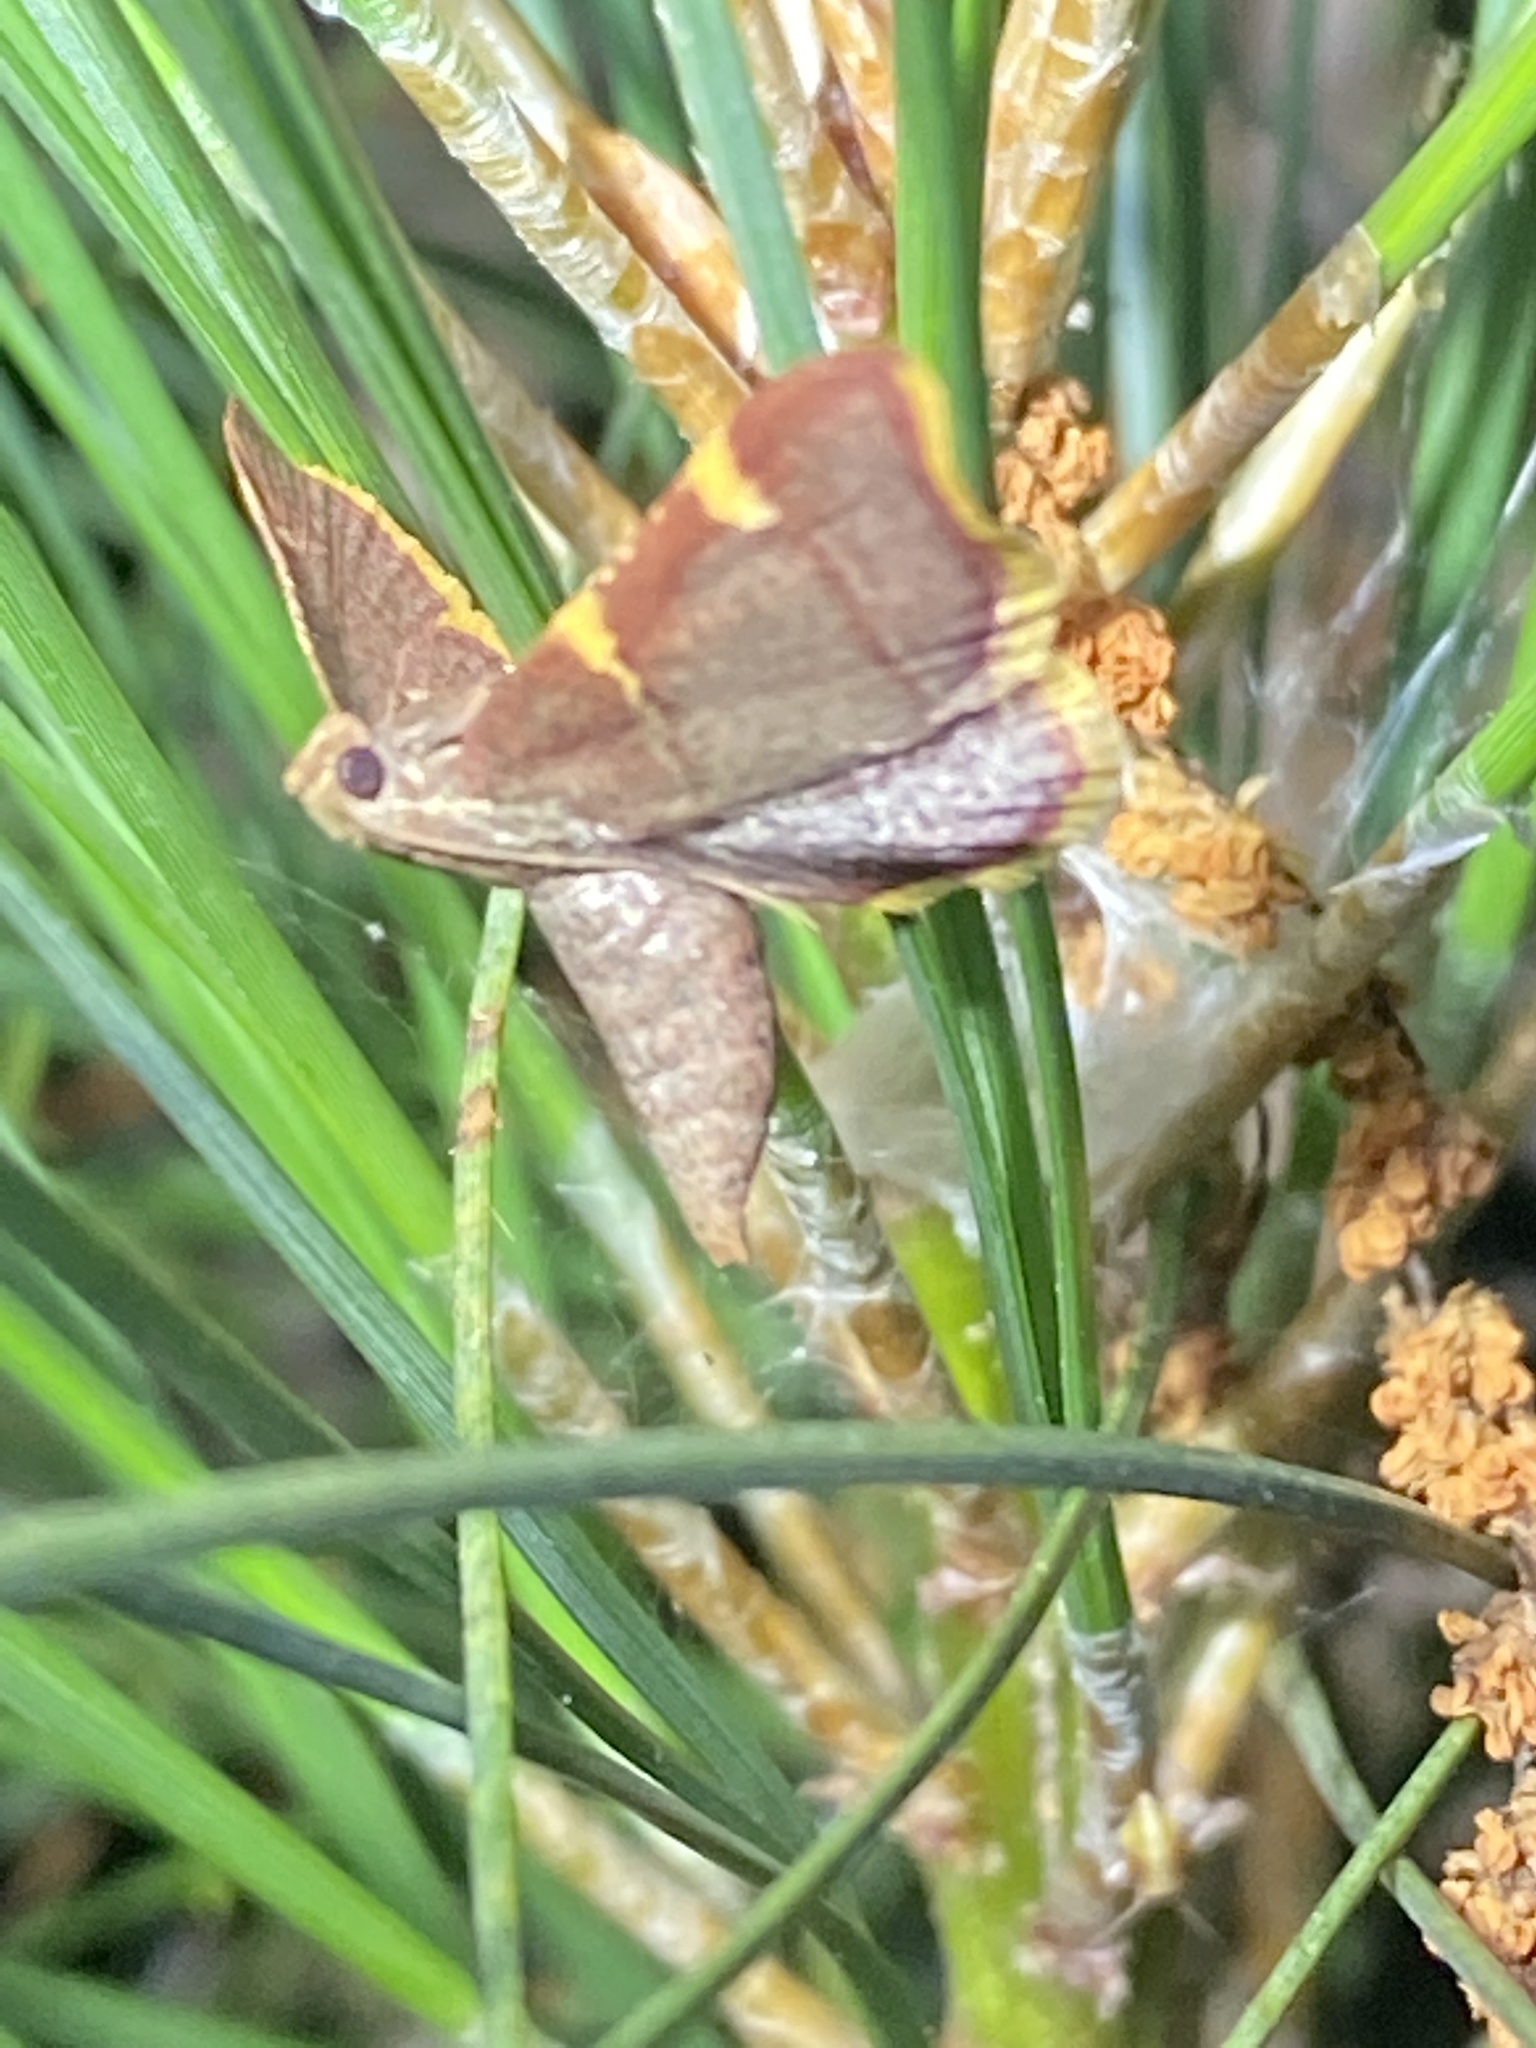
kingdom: Animalia
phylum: Arthropoda
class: Insecta
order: Lepidoptera
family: Pyralidae
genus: Hypsopygia
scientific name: Hypsopygia olinalis
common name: Yellow-fringed dolichomia moth
